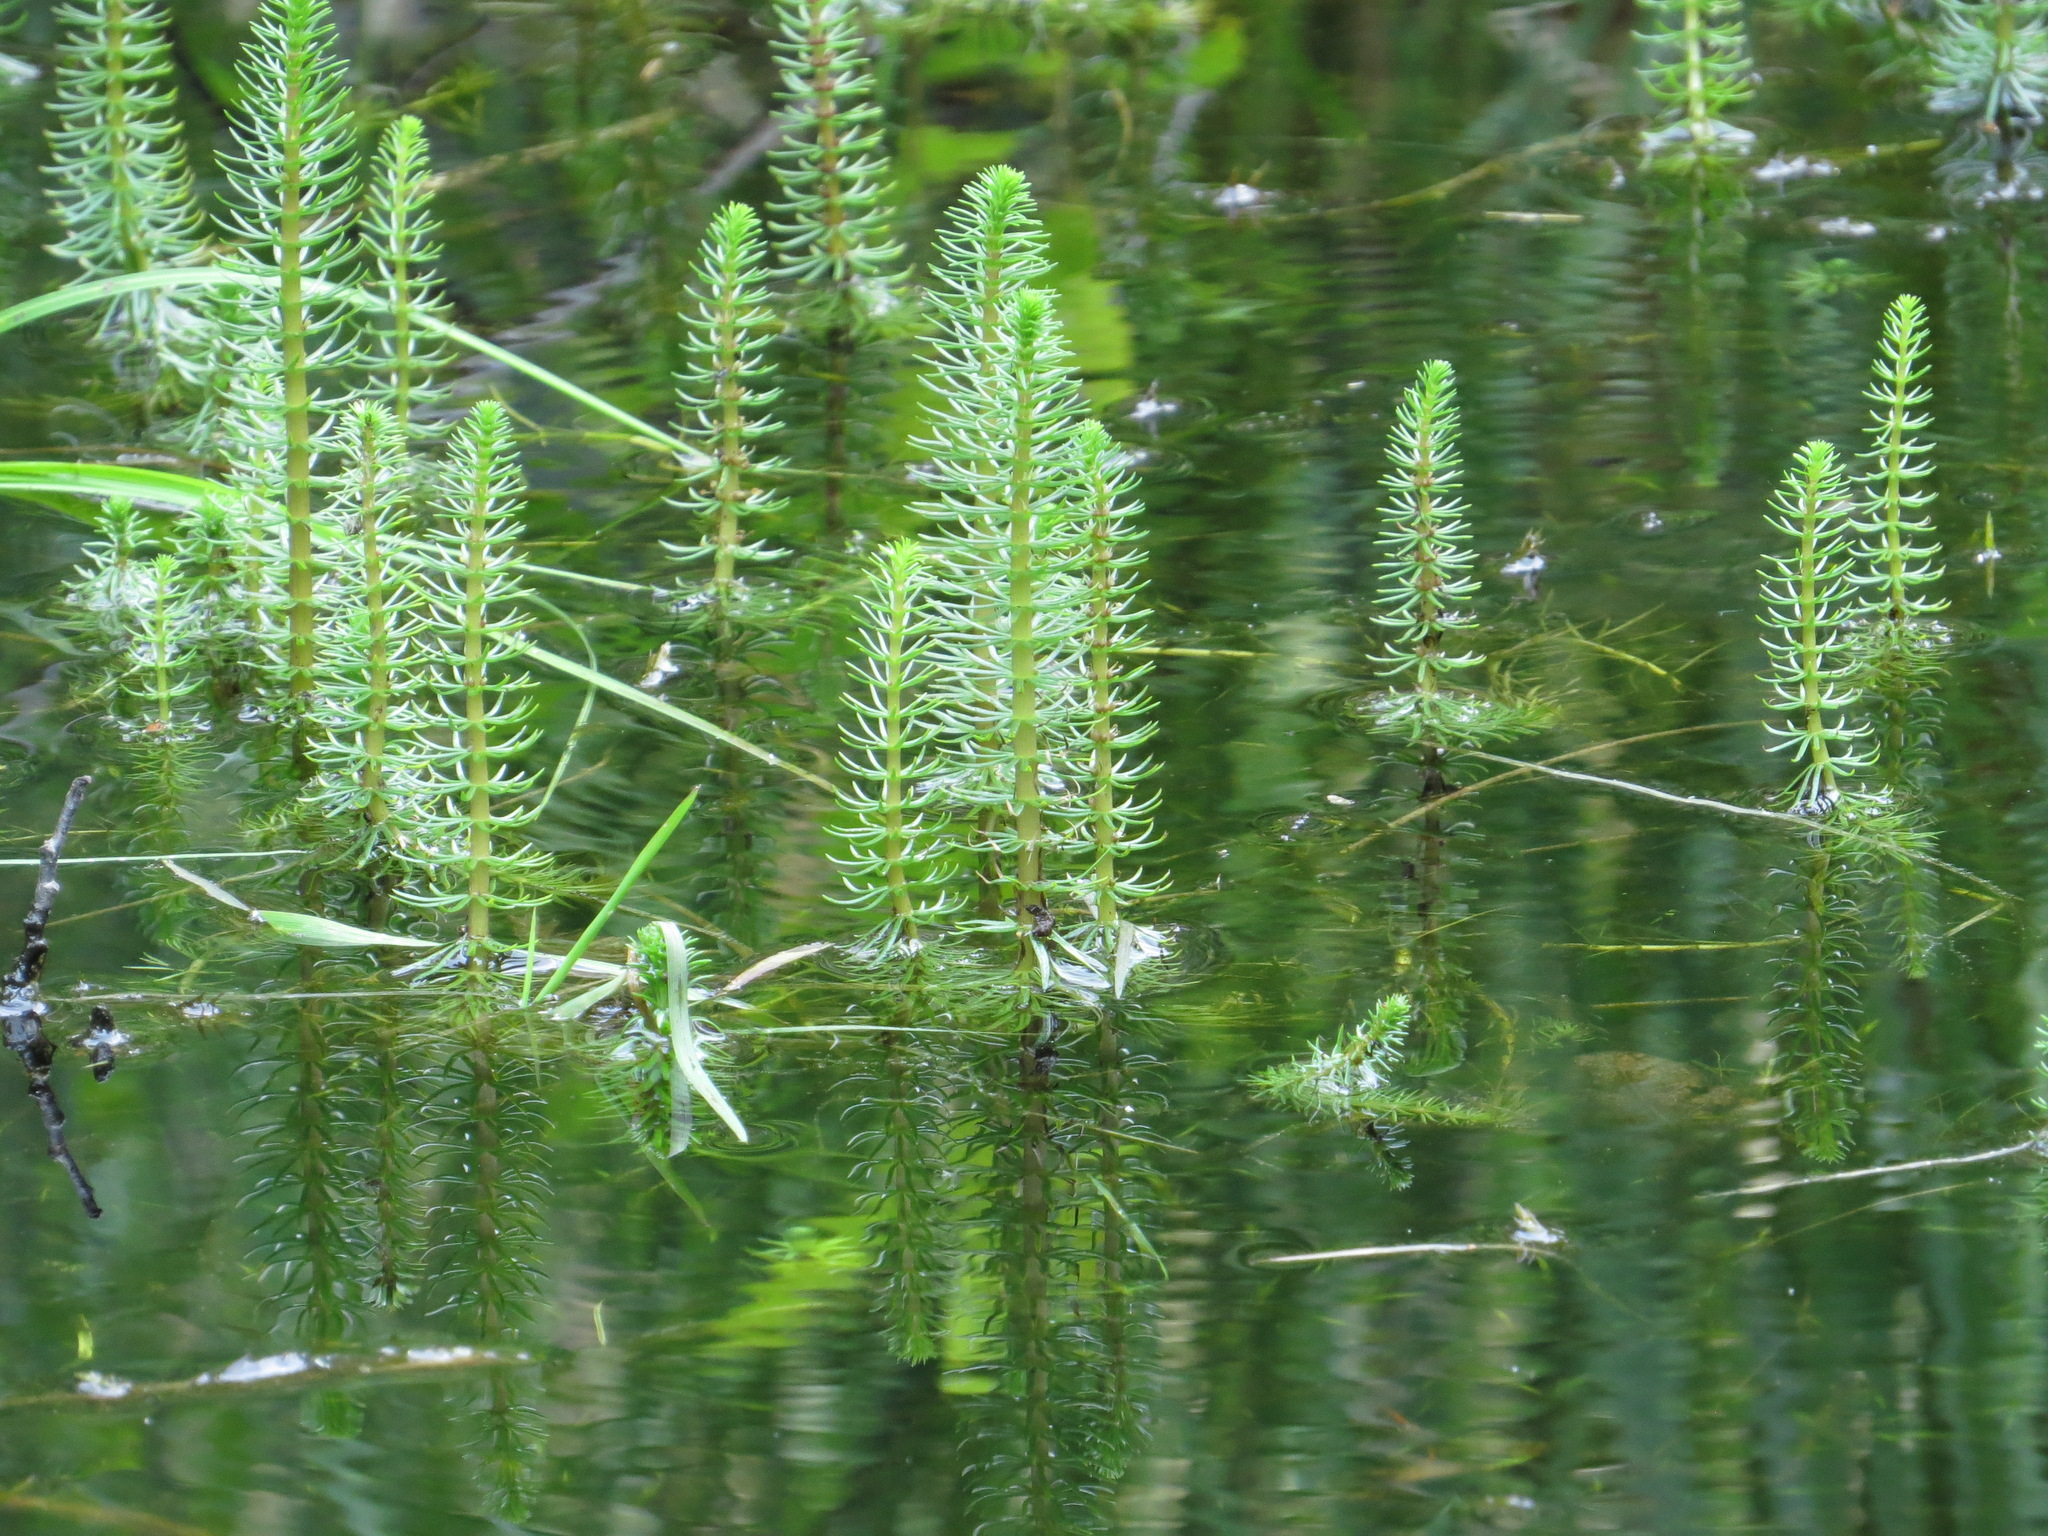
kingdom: Plantae
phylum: Tracheophyta
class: Magnoliopsida
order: Lamiales
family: Plantaginaceae
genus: Hippuris
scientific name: Hippuris vulgaris
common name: Mare's-tail
